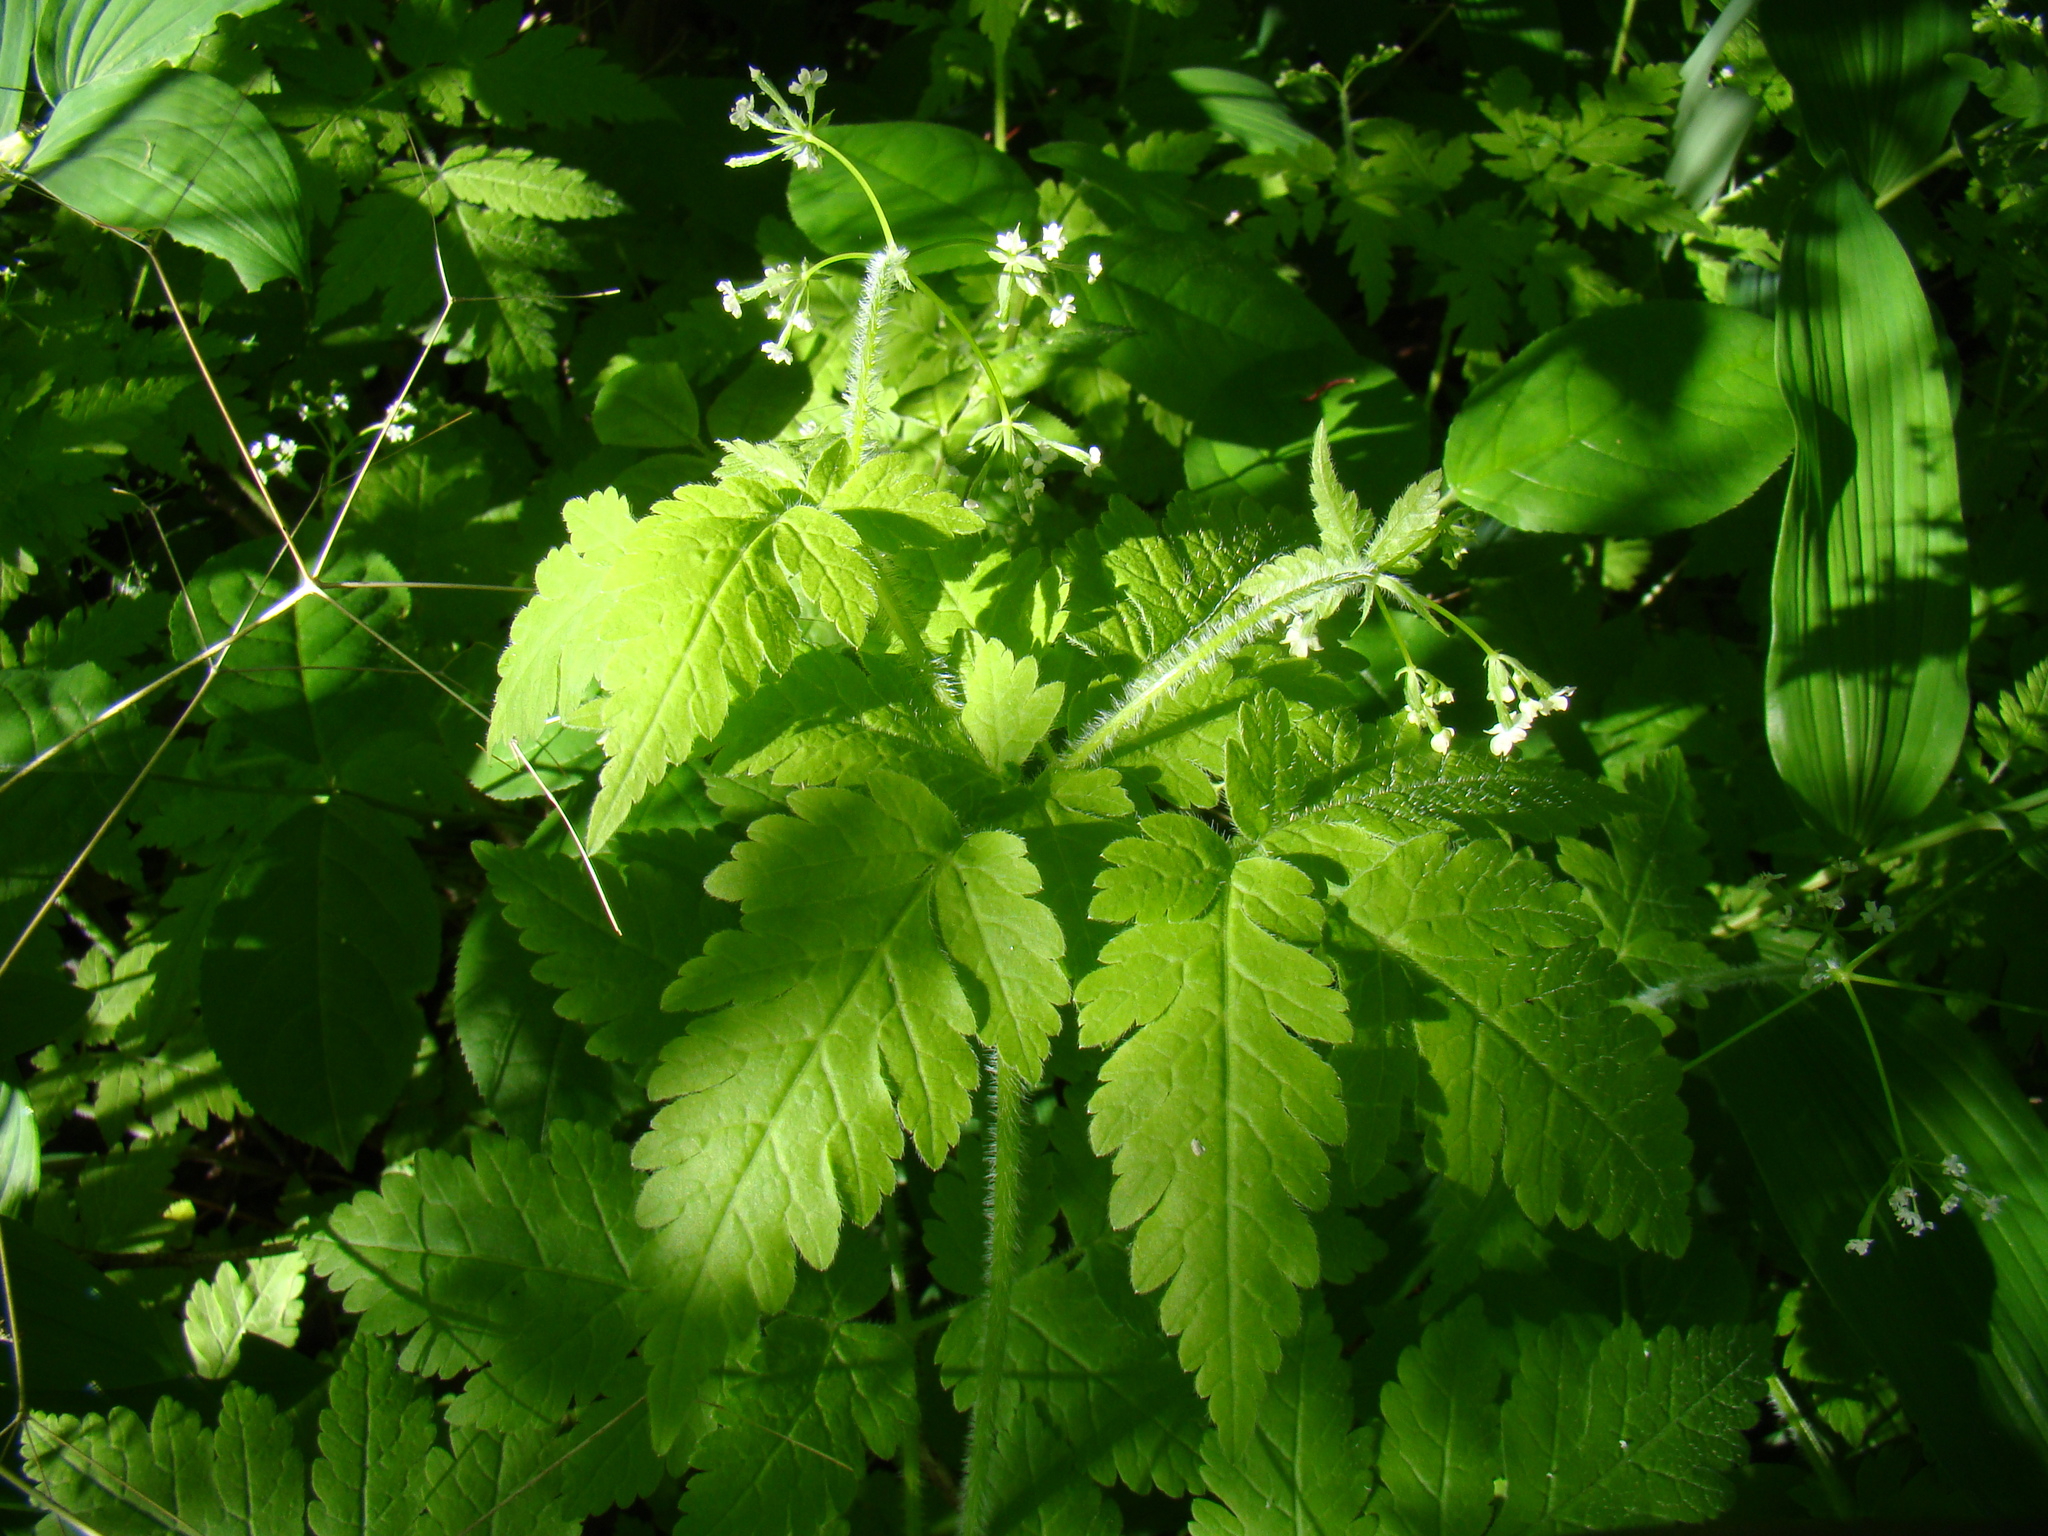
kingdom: Plantae
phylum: Tracheophyta
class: Magnoliopsida
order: Apiales
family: Apiaceae
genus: Osmorhiza
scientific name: Osmorhiza claytonii
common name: Hairy sweet cicely
